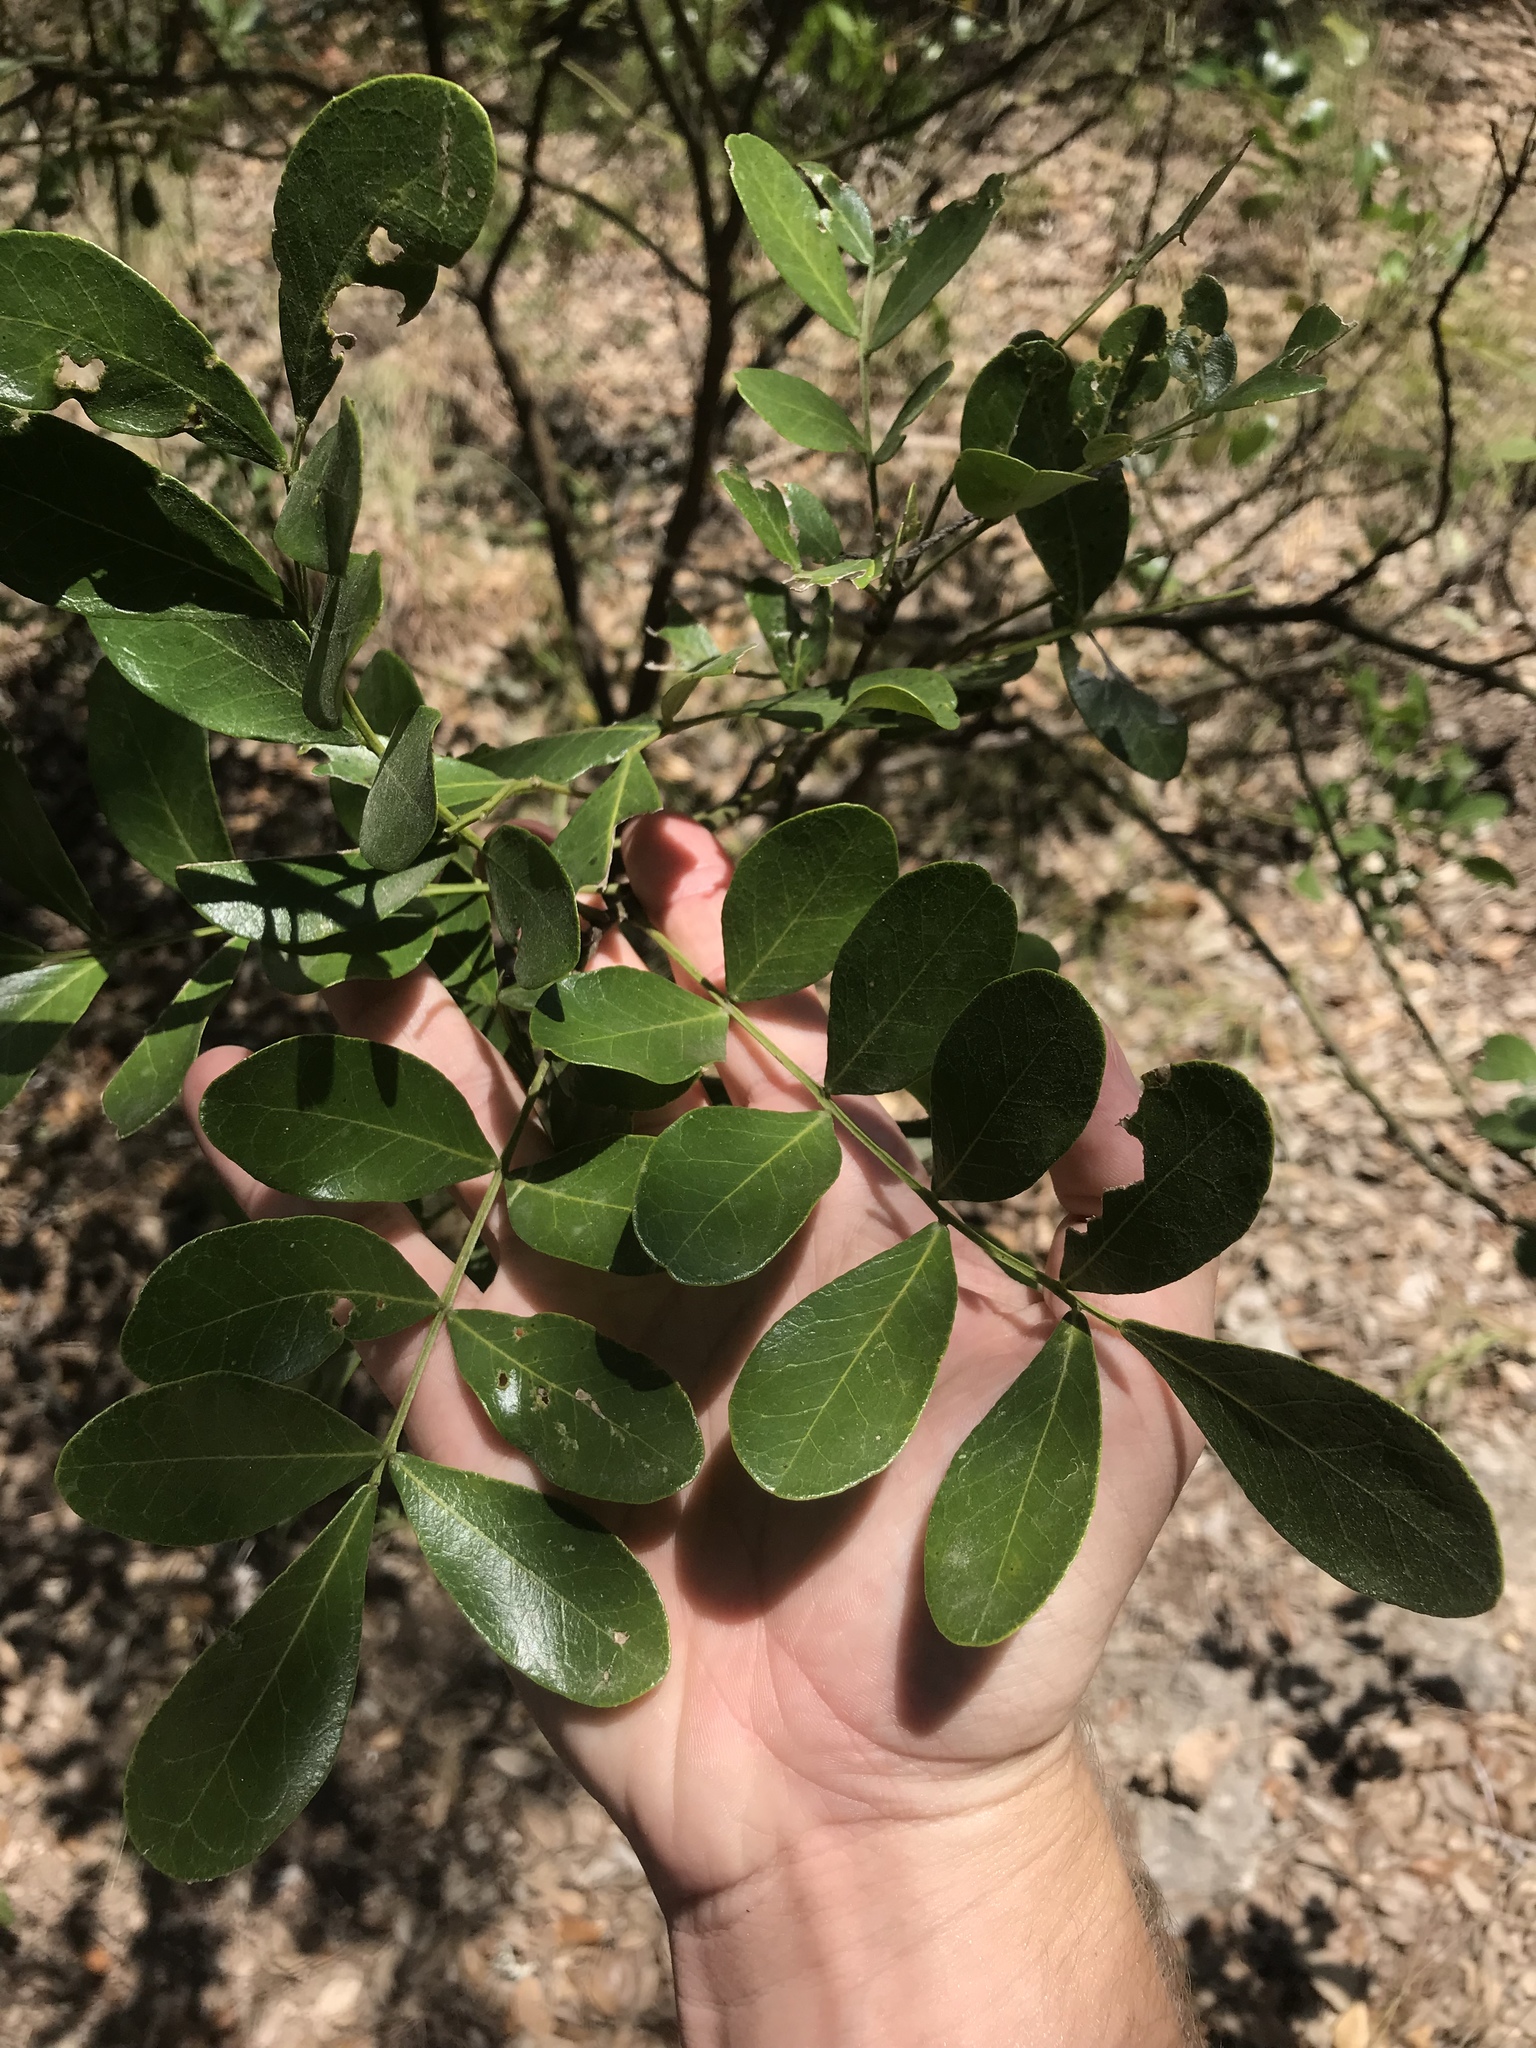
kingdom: Plantae
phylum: Tracheophyta
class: Magnoliopsida
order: Fabales
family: Fabaceae
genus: Dermatophyllum
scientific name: Dermatophyllum secundiflorum
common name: Texas-mountain-laurel
